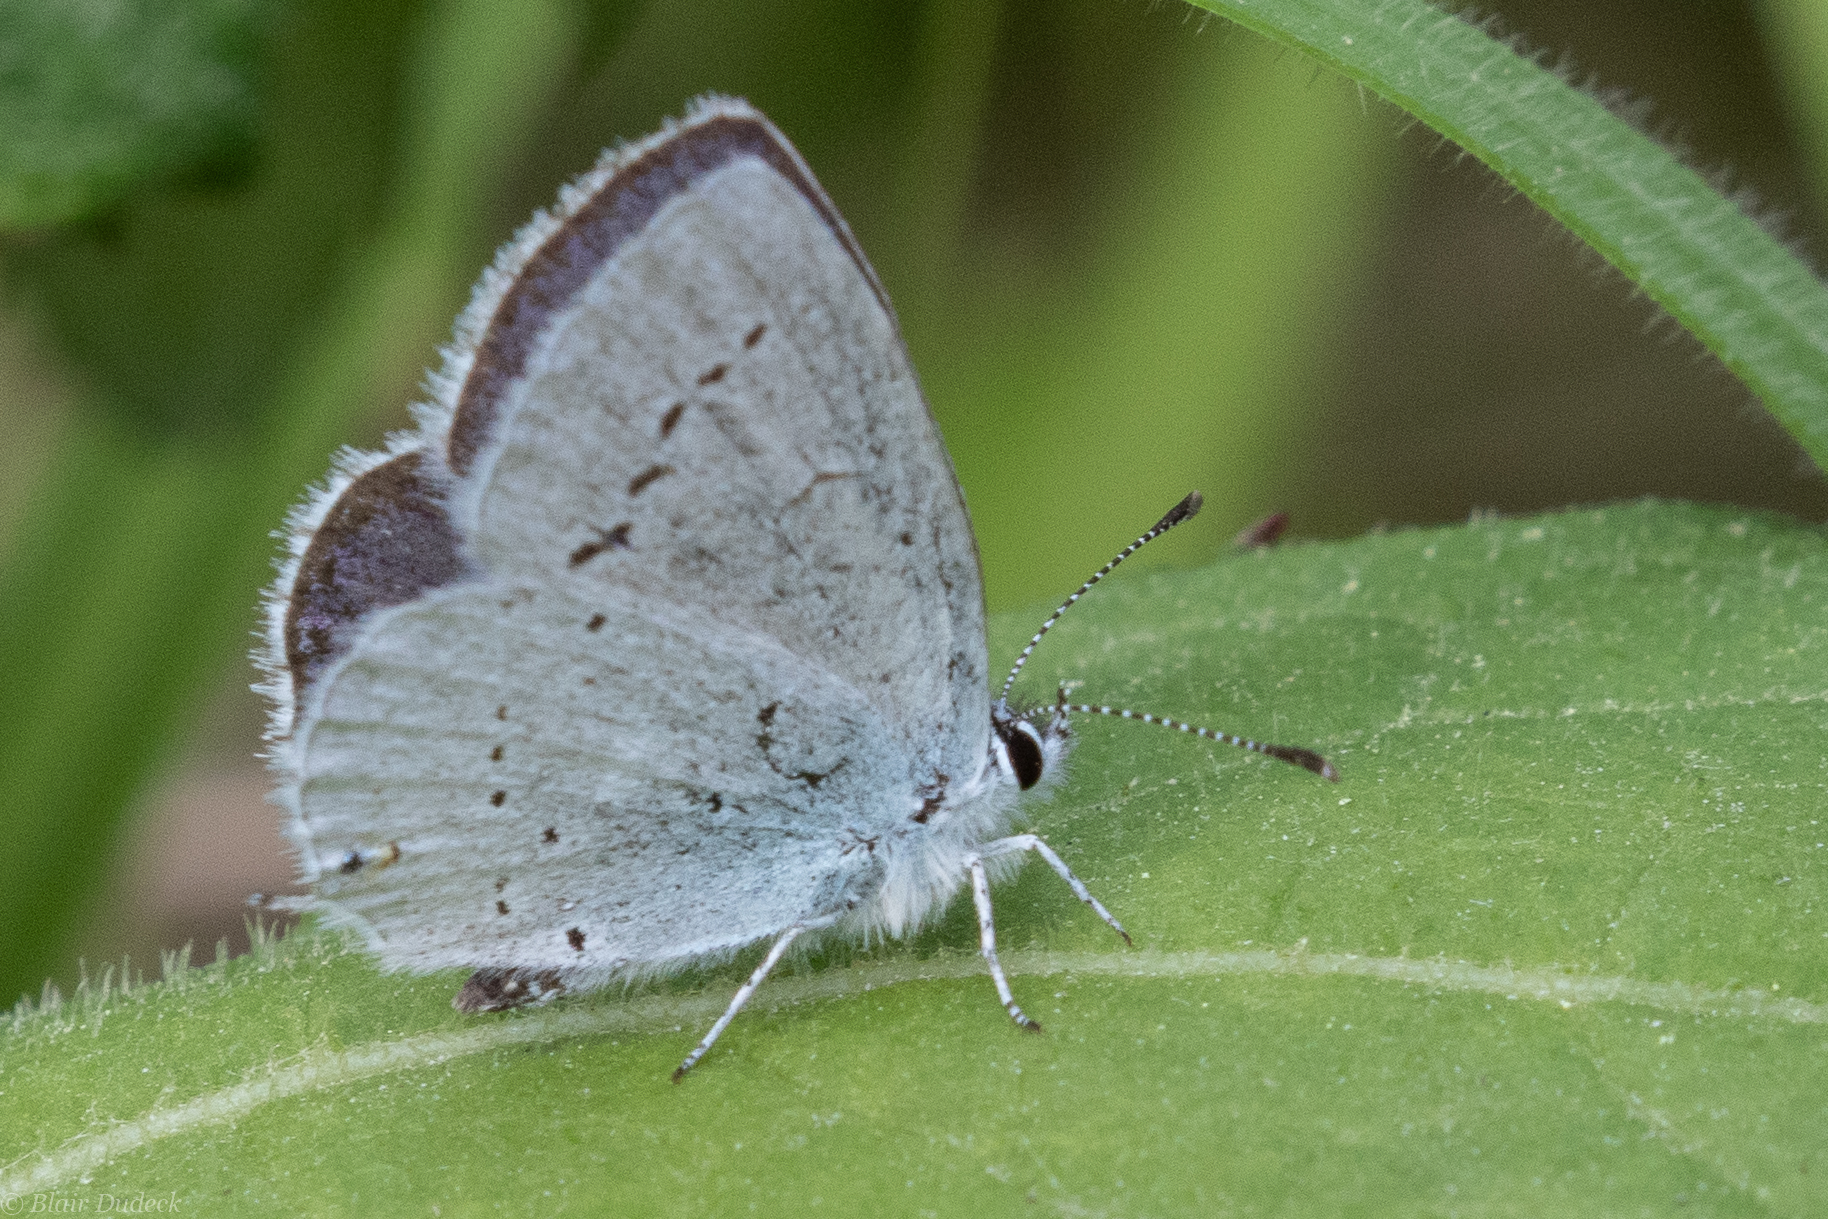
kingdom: Animalia
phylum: Arthropoda
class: Insecta
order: Lepidoptera
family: Lycaenidae
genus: Elkalyce
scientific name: Elkalyce amyntula
